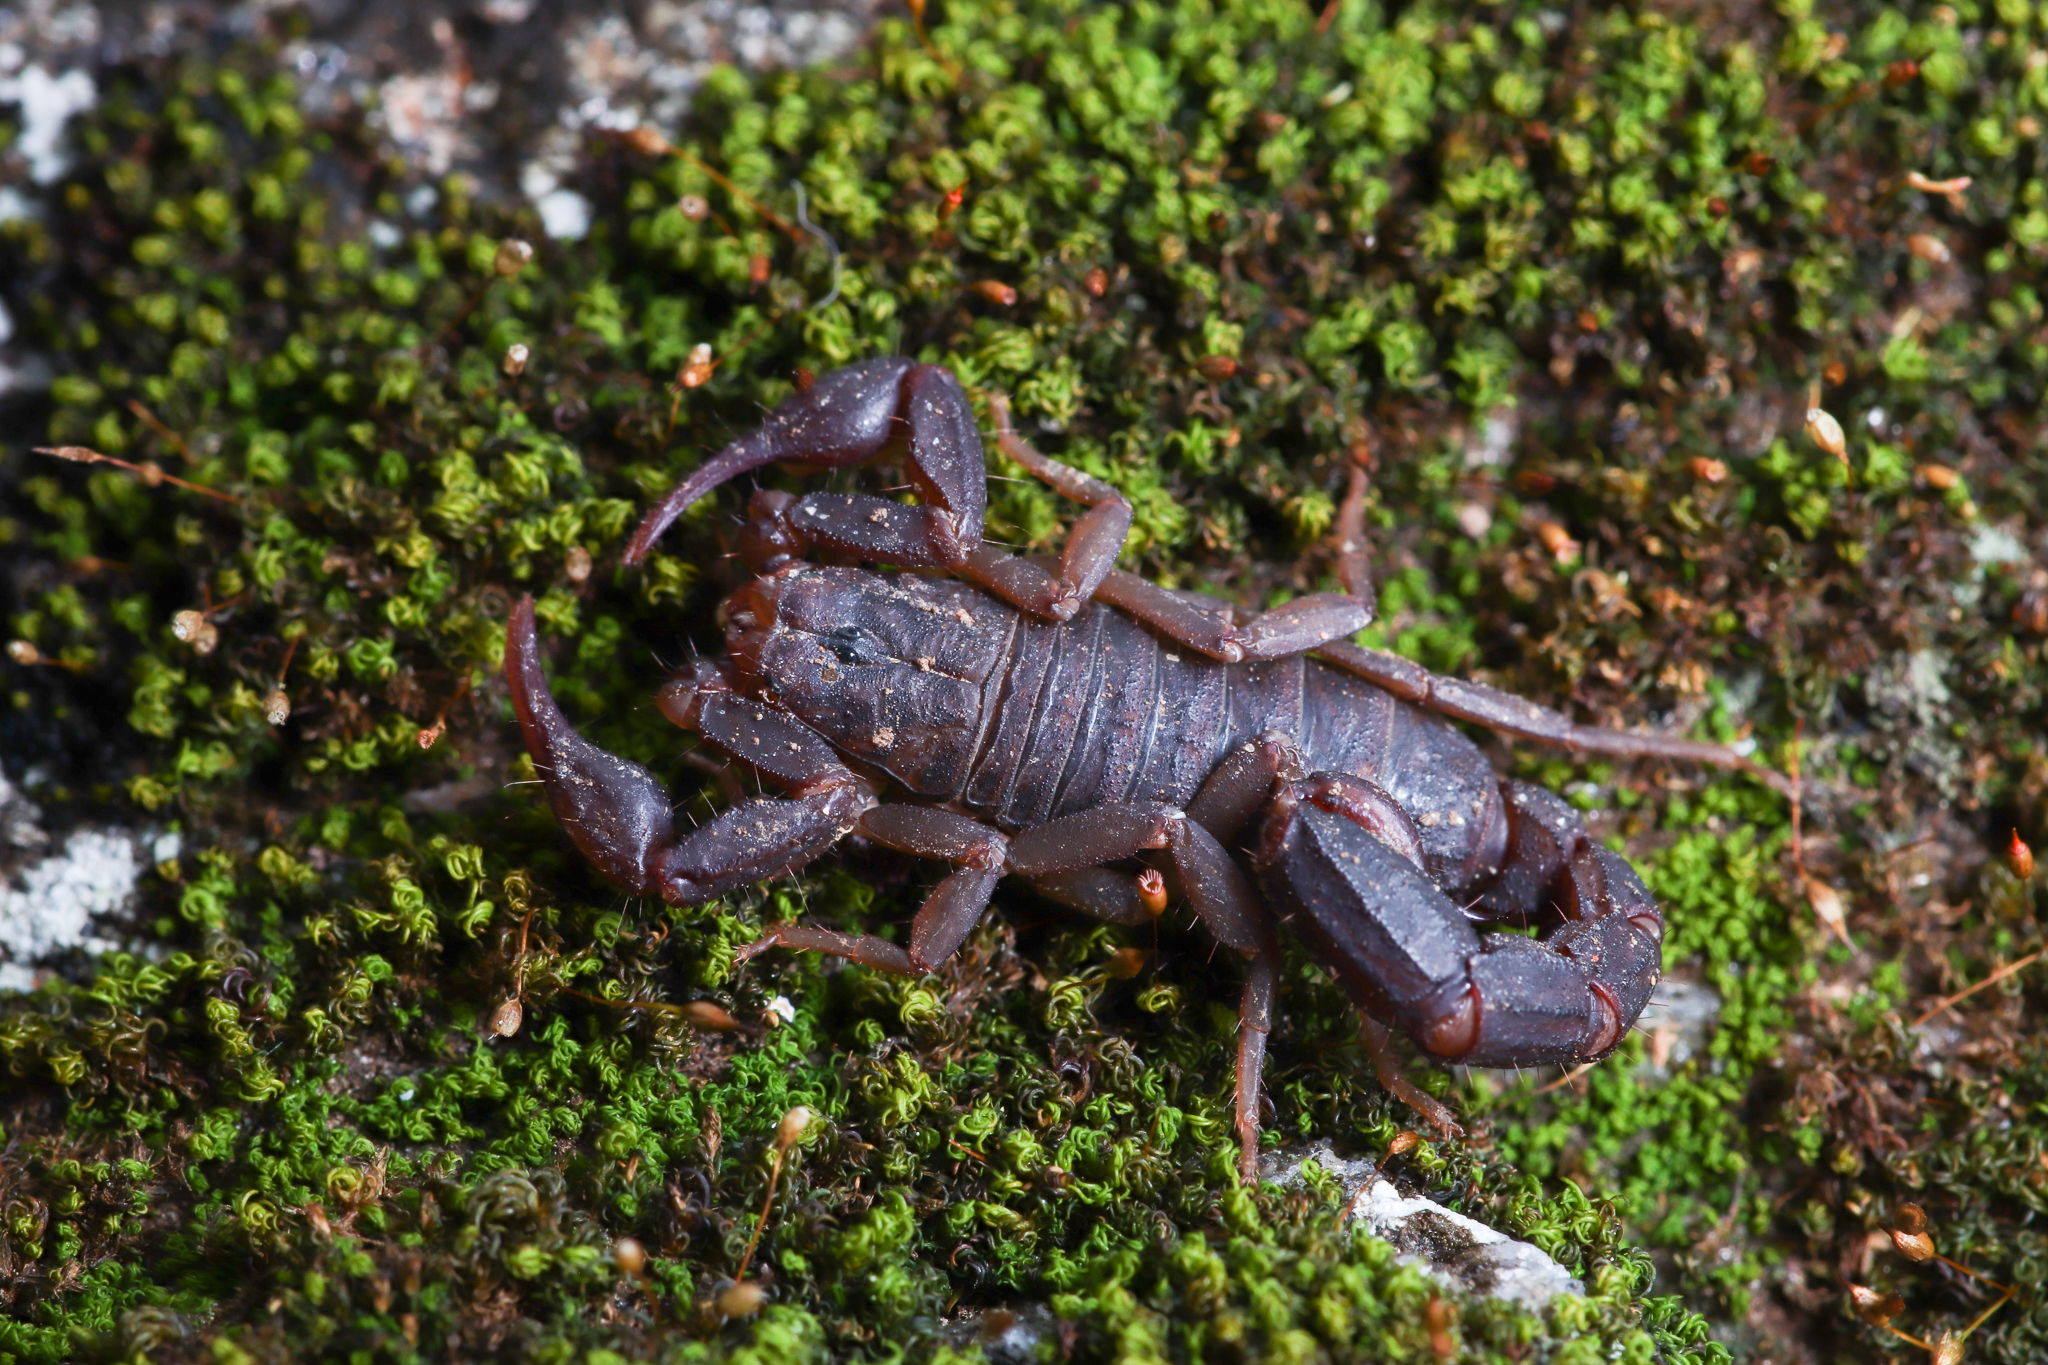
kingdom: Animalia
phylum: Arthropoda
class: Arachnida
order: Scorpiones
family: Vaejovidae
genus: Vaejovis
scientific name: Vaejovis carolinianus
